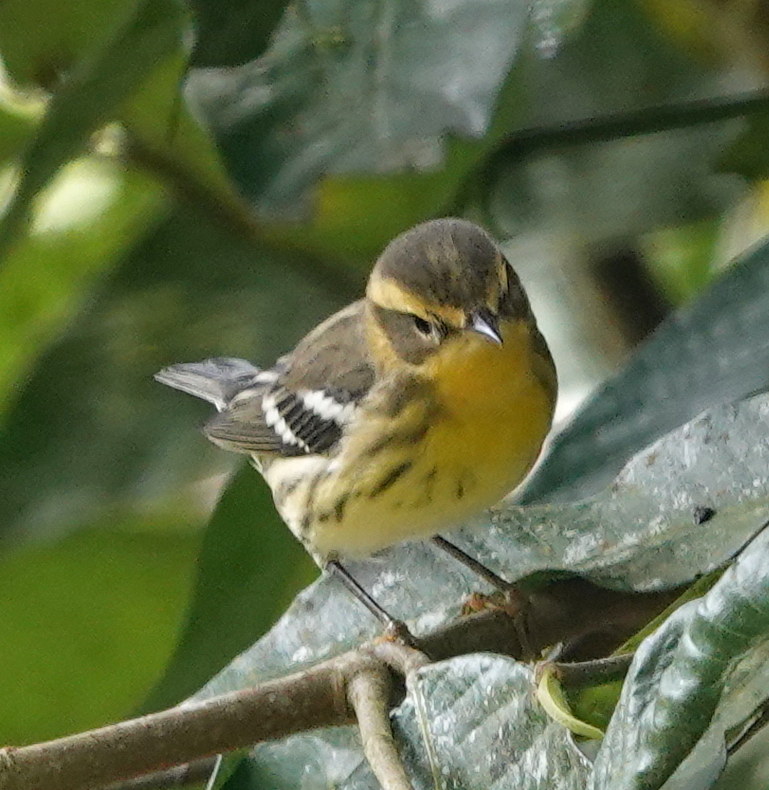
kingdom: Animalia
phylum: Chordata
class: Aves
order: Passeriformes
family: Parulidae
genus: Setophaga
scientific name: Setophaga fusca
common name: Blackburnian warbler
